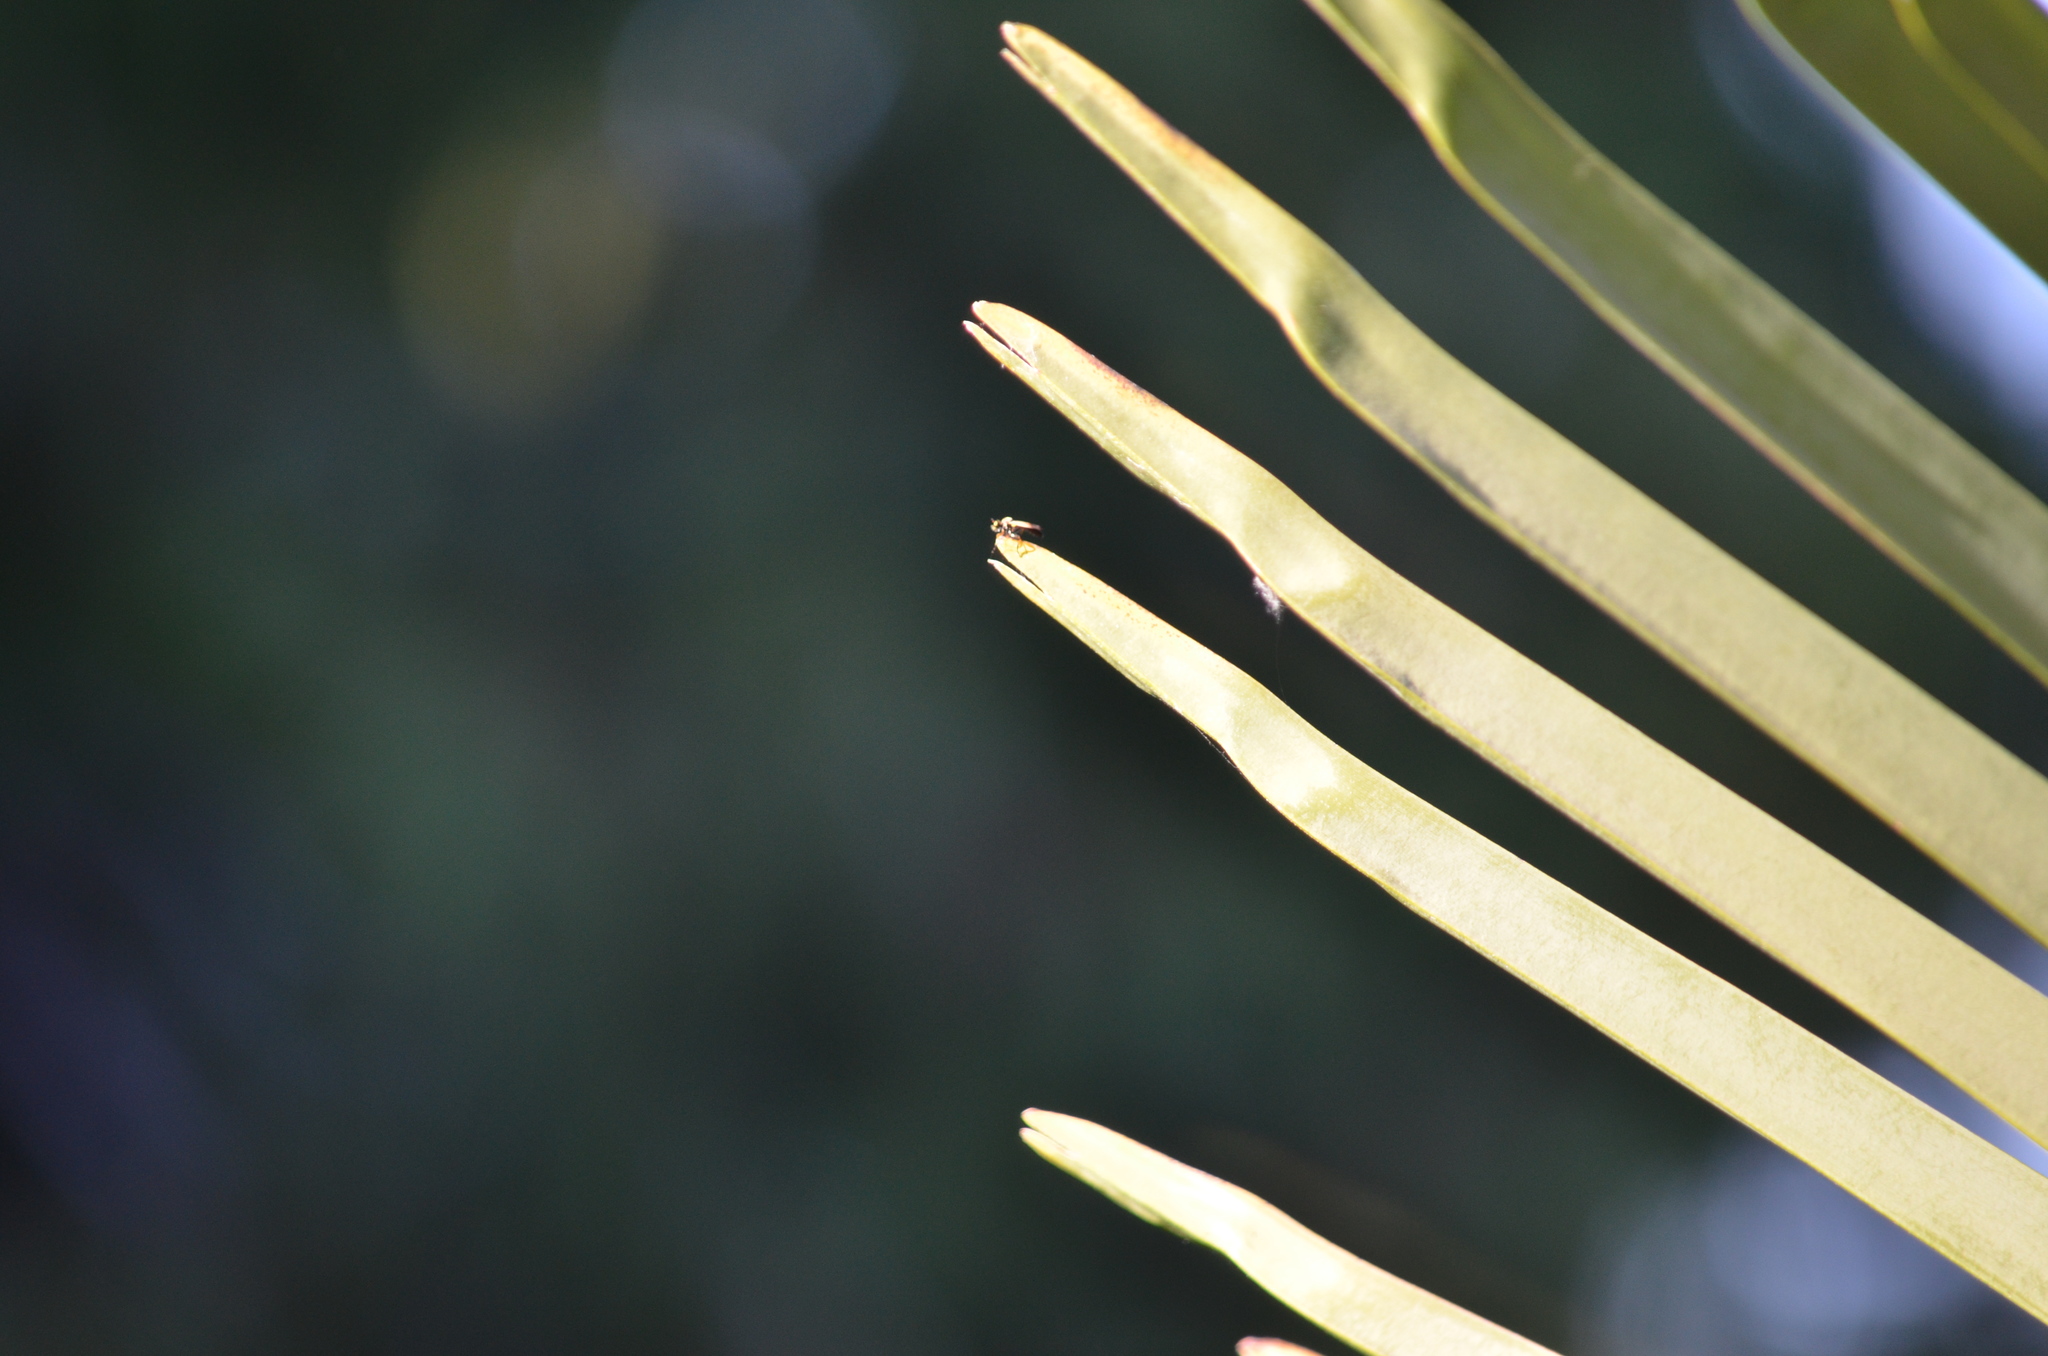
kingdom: Animalia
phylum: Arthropoda
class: Insecta
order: Diptera
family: Asilidae
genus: Eudioctria
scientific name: Eudioctria sackeni
